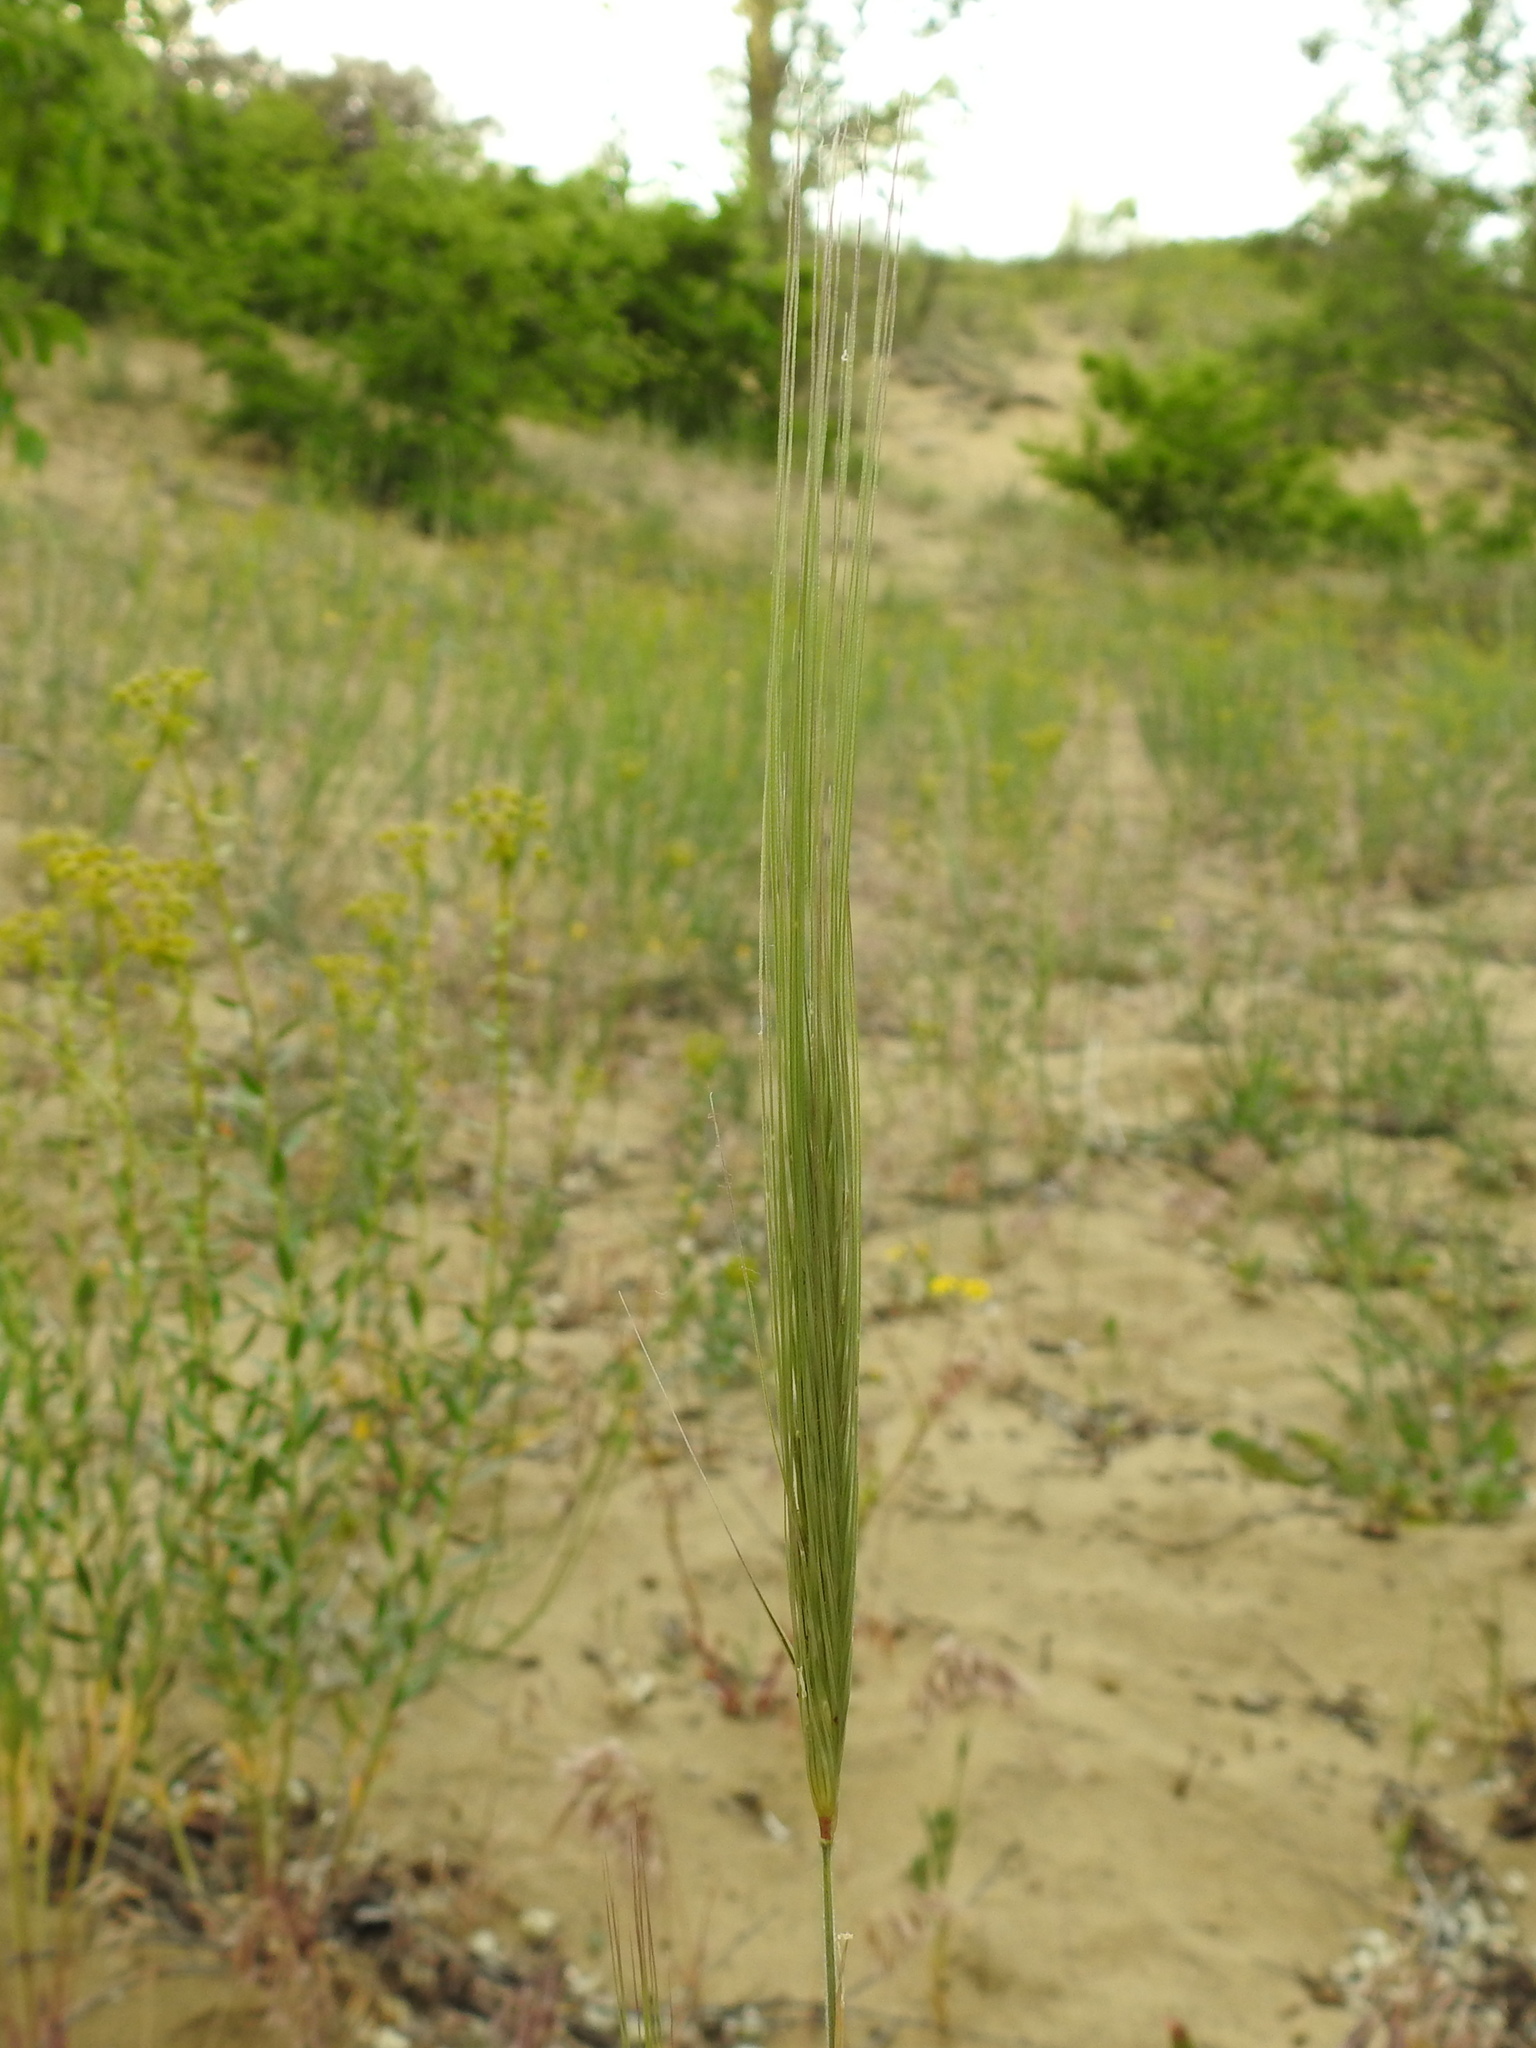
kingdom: Plantae
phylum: Tracheophyta
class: Liliopsida
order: Poales
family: Poaceae
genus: Secale
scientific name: Secale sylvestre
